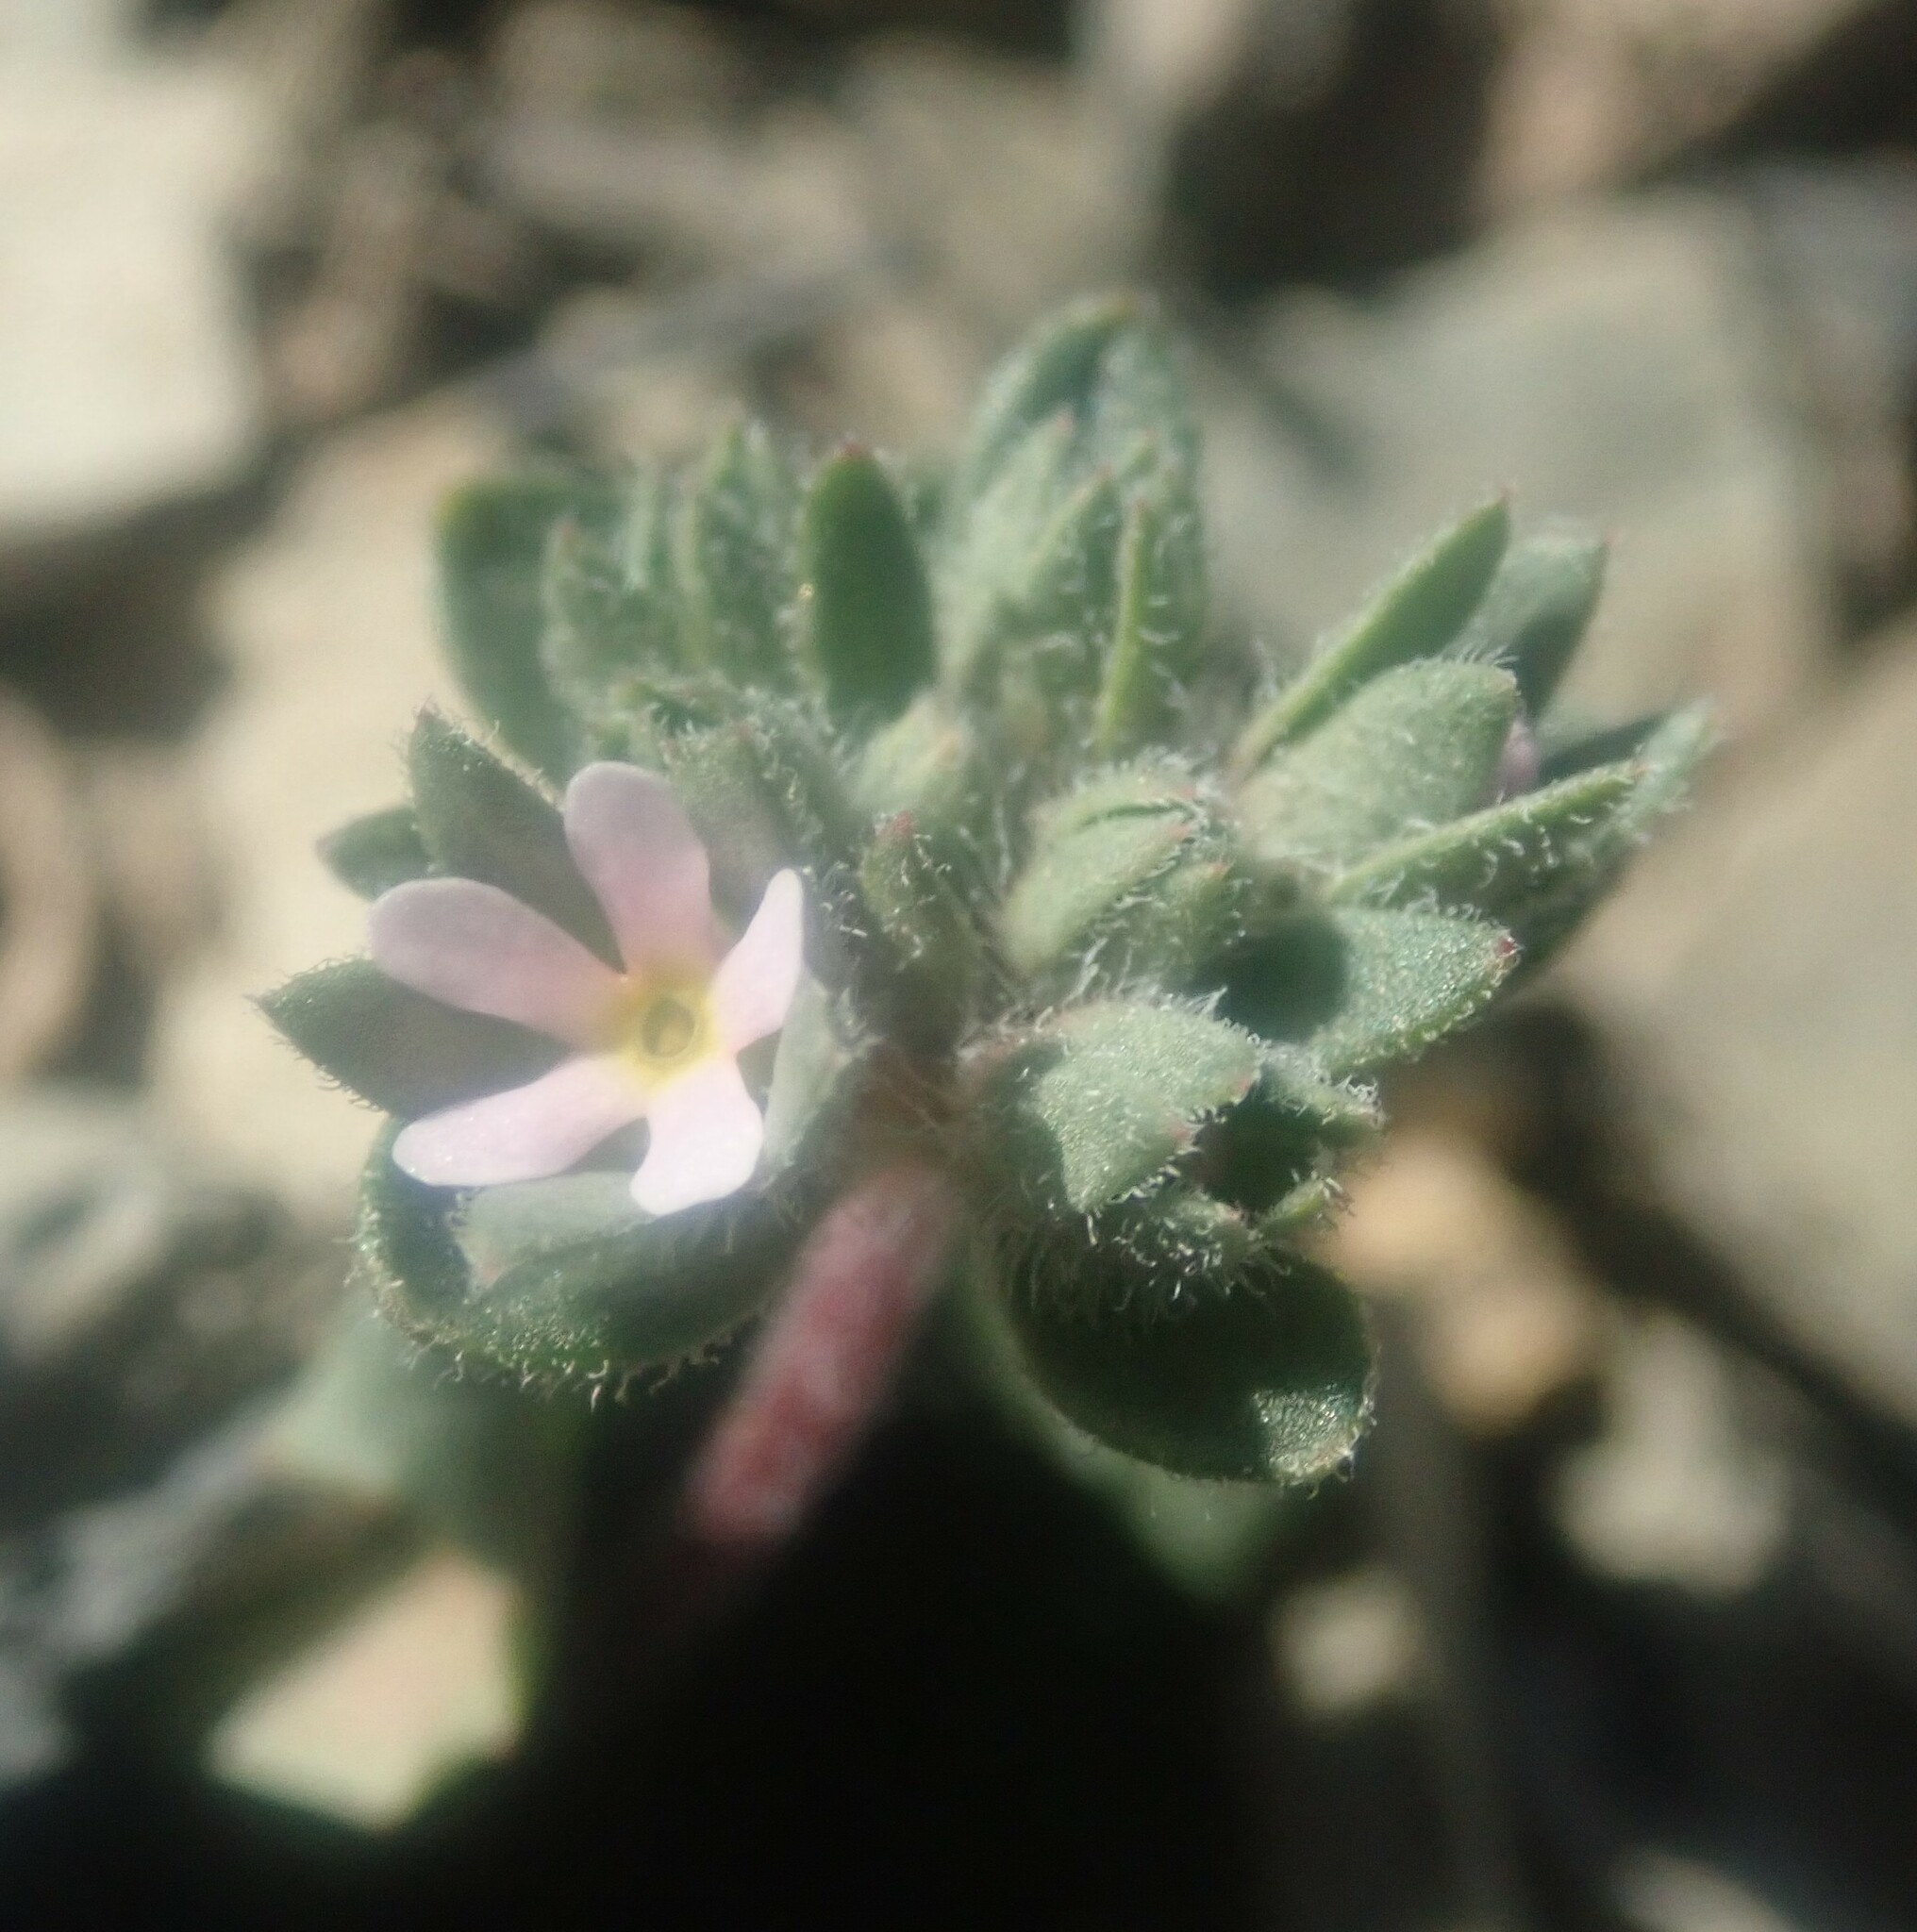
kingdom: Plantae
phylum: Tracheophyta
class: Magnoliopsida
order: Ericales
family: Primulaceae
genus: Androsace
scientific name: Androsace maxima
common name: Annual androsace
